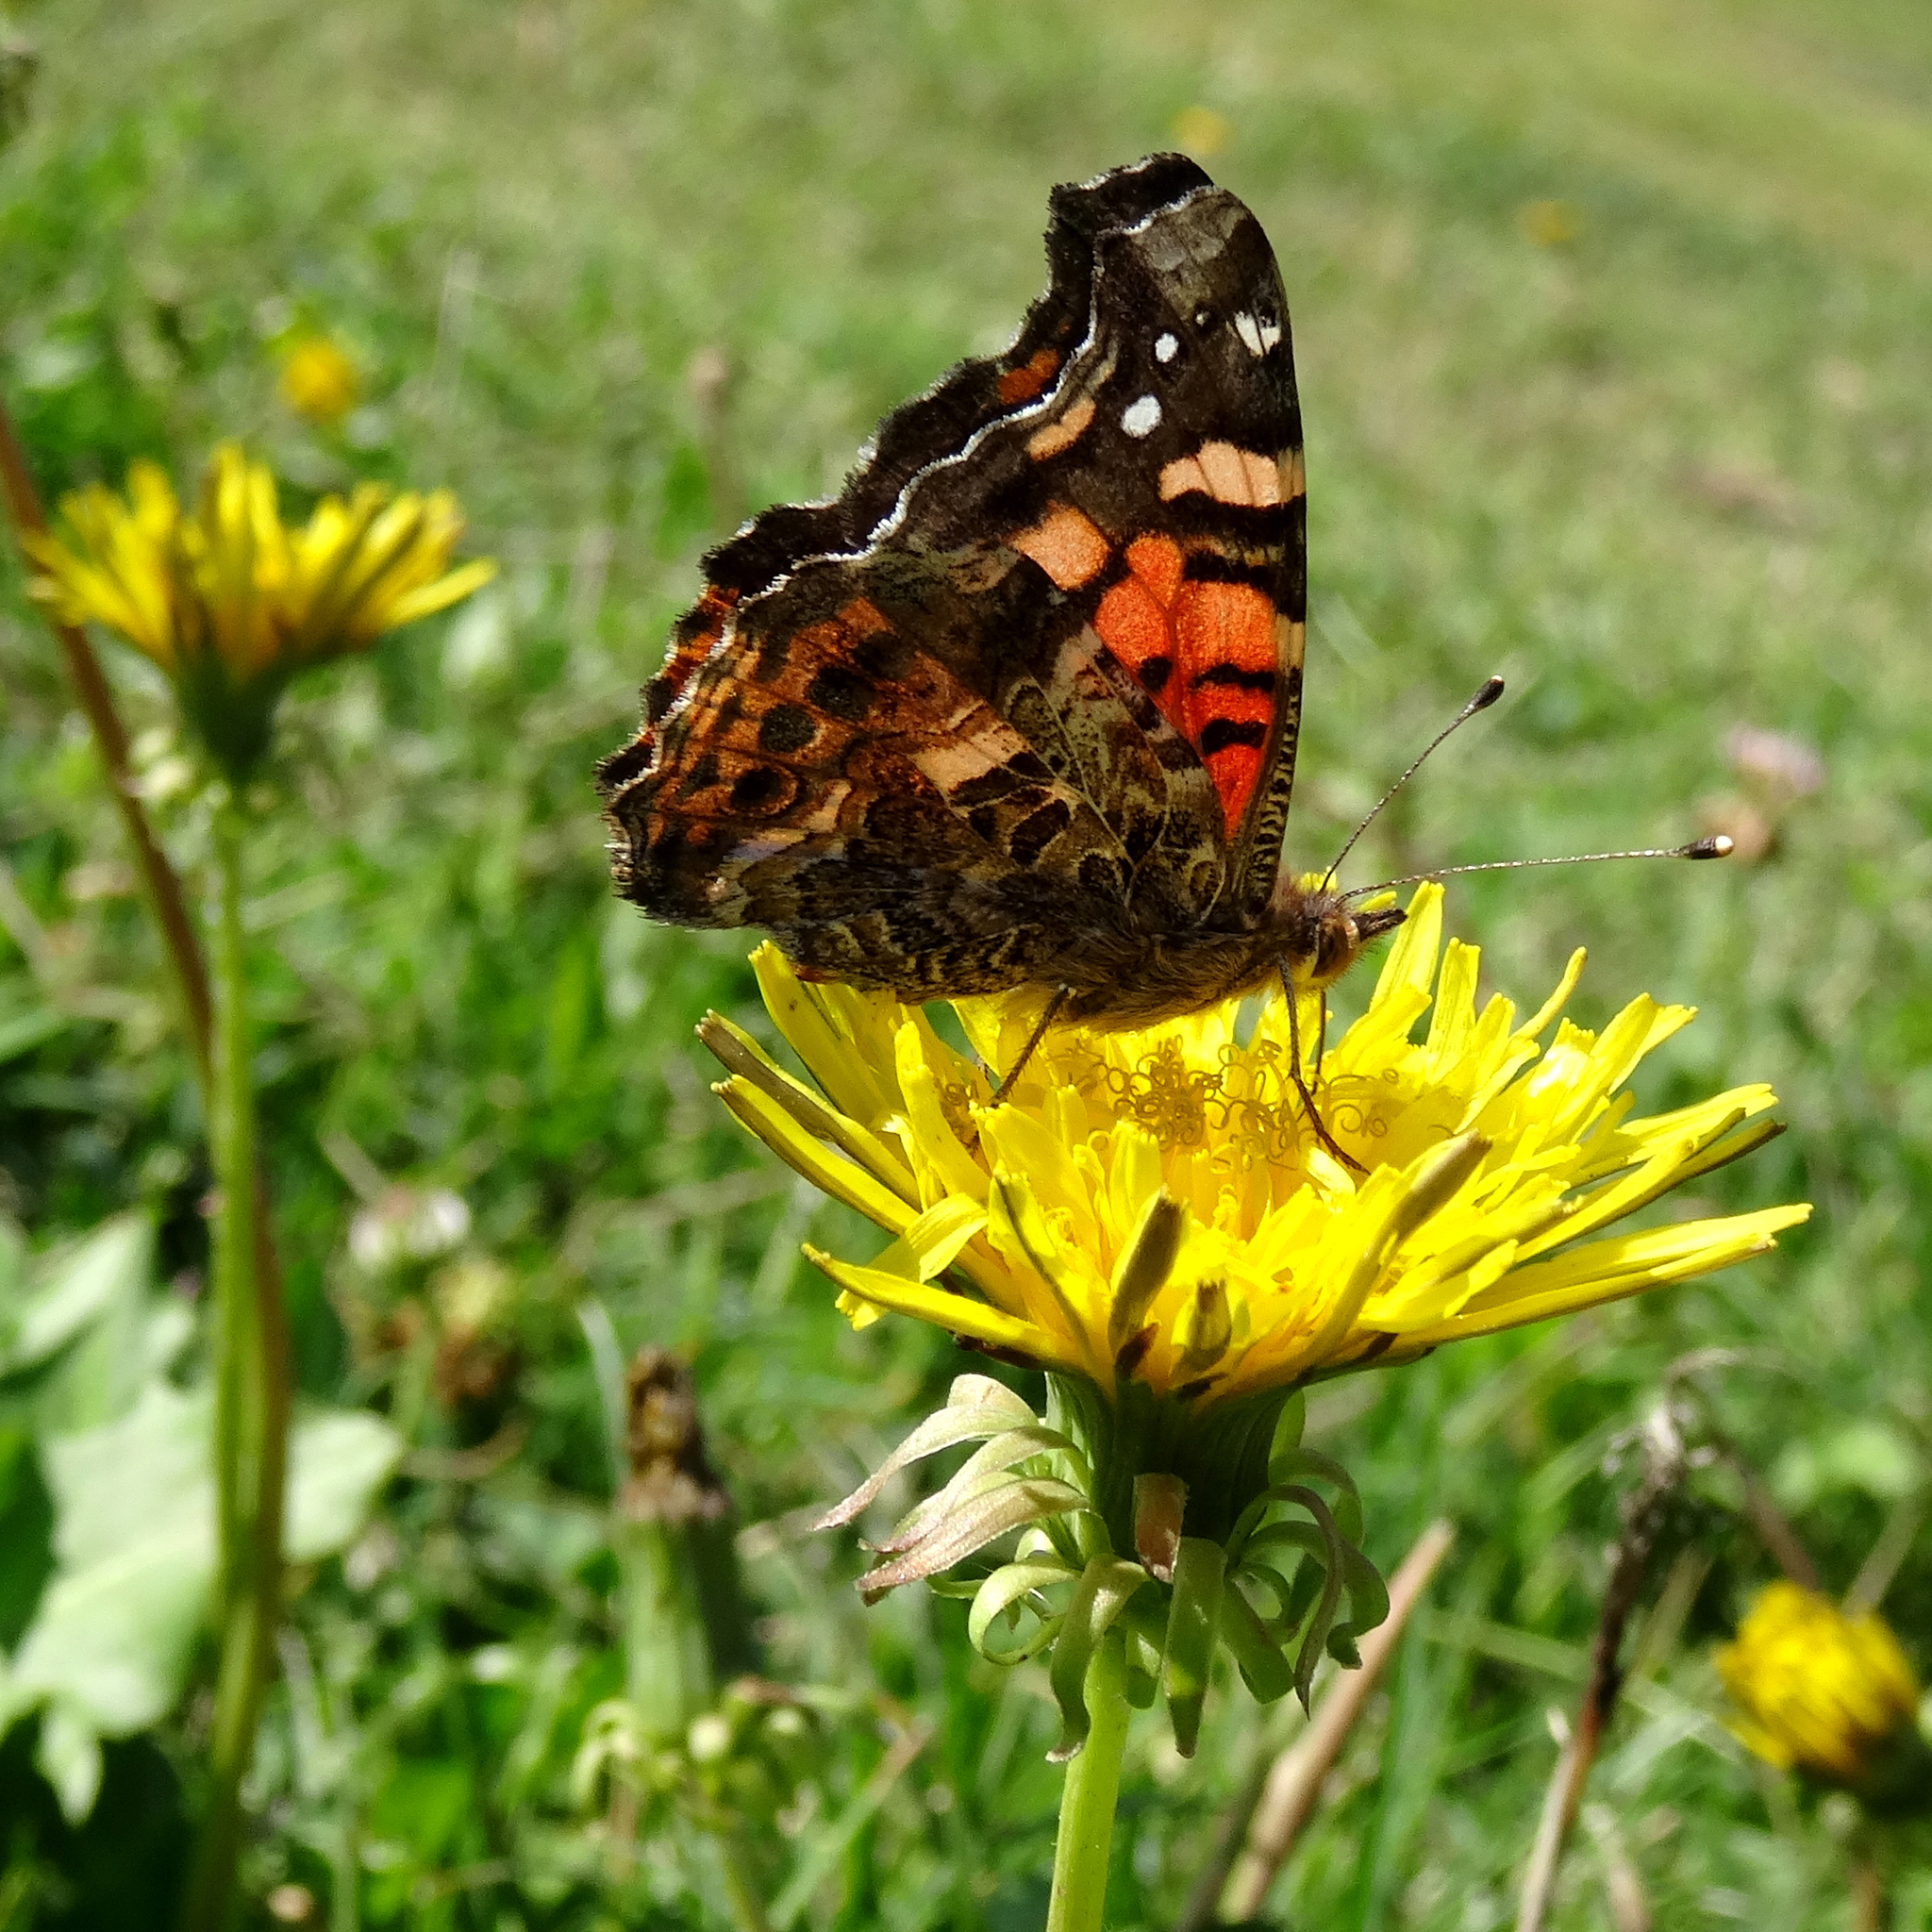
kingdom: Animalia
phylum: Arthropoda
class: Insecta
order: Lepidoptera
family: Nymphalidae
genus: Vanessa
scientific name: Vanessa carye
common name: Subtropical lady
